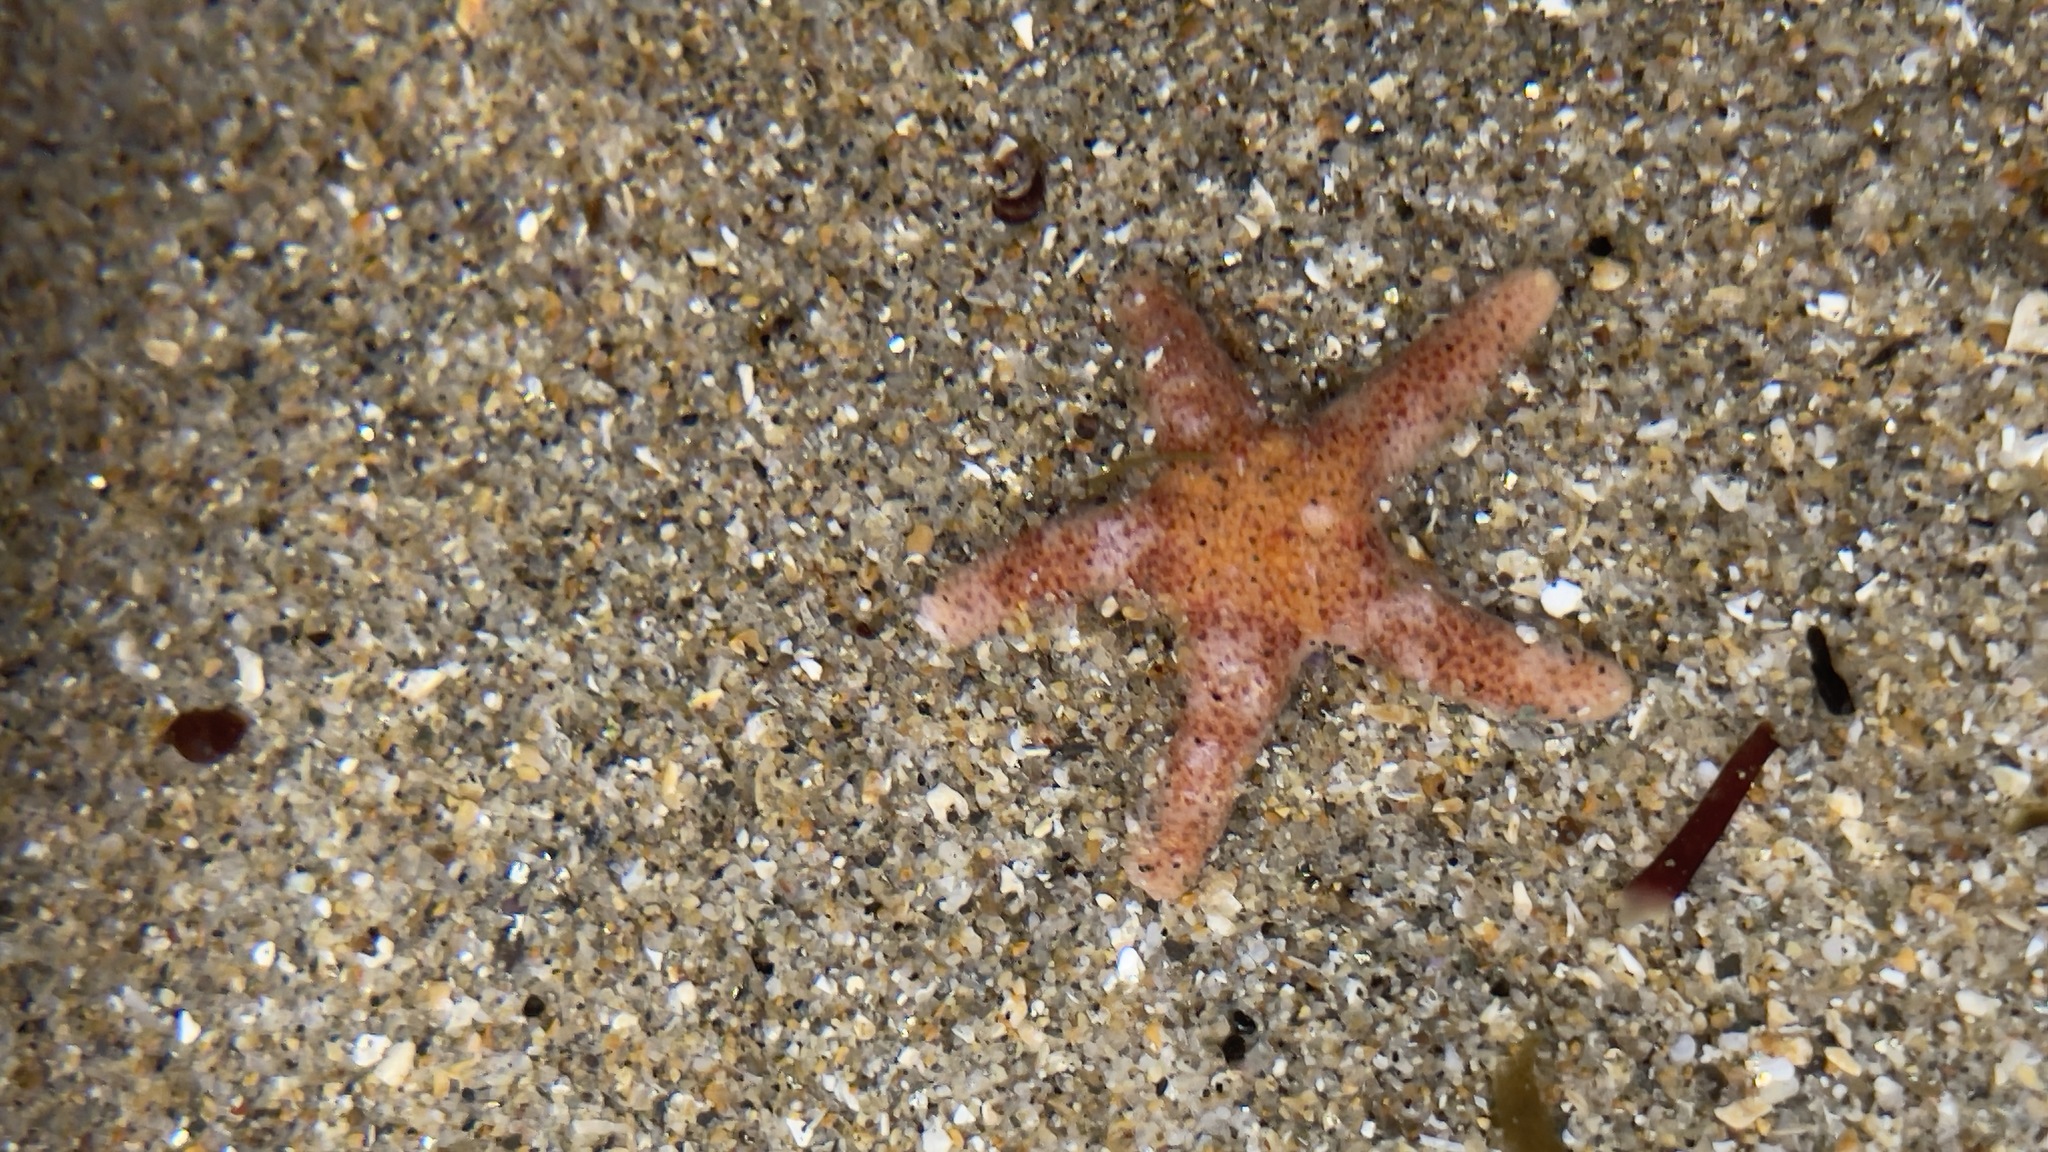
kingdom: Animalia
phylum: Echinodermata
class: Asteroidea
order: Spinulosida
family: Echinasteridae
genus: Henricia
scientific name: Henricia pumila
